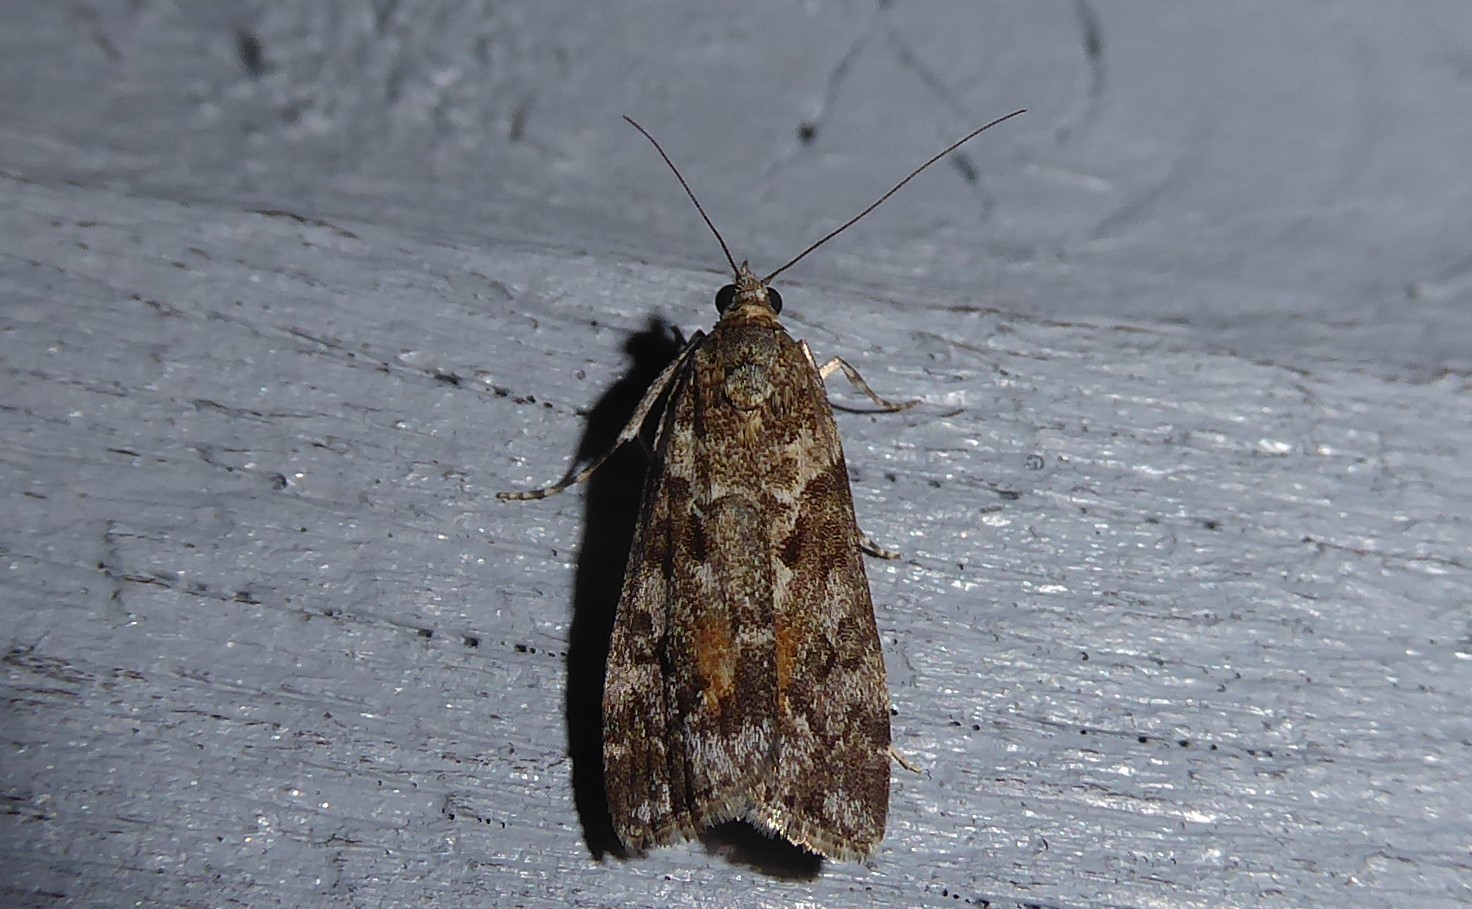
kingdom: Animalia
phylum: Arthropoda
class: Insecta
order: Lepidoptera
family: Crambidae
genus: Eudonia
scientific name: Eudonia submarginalis
